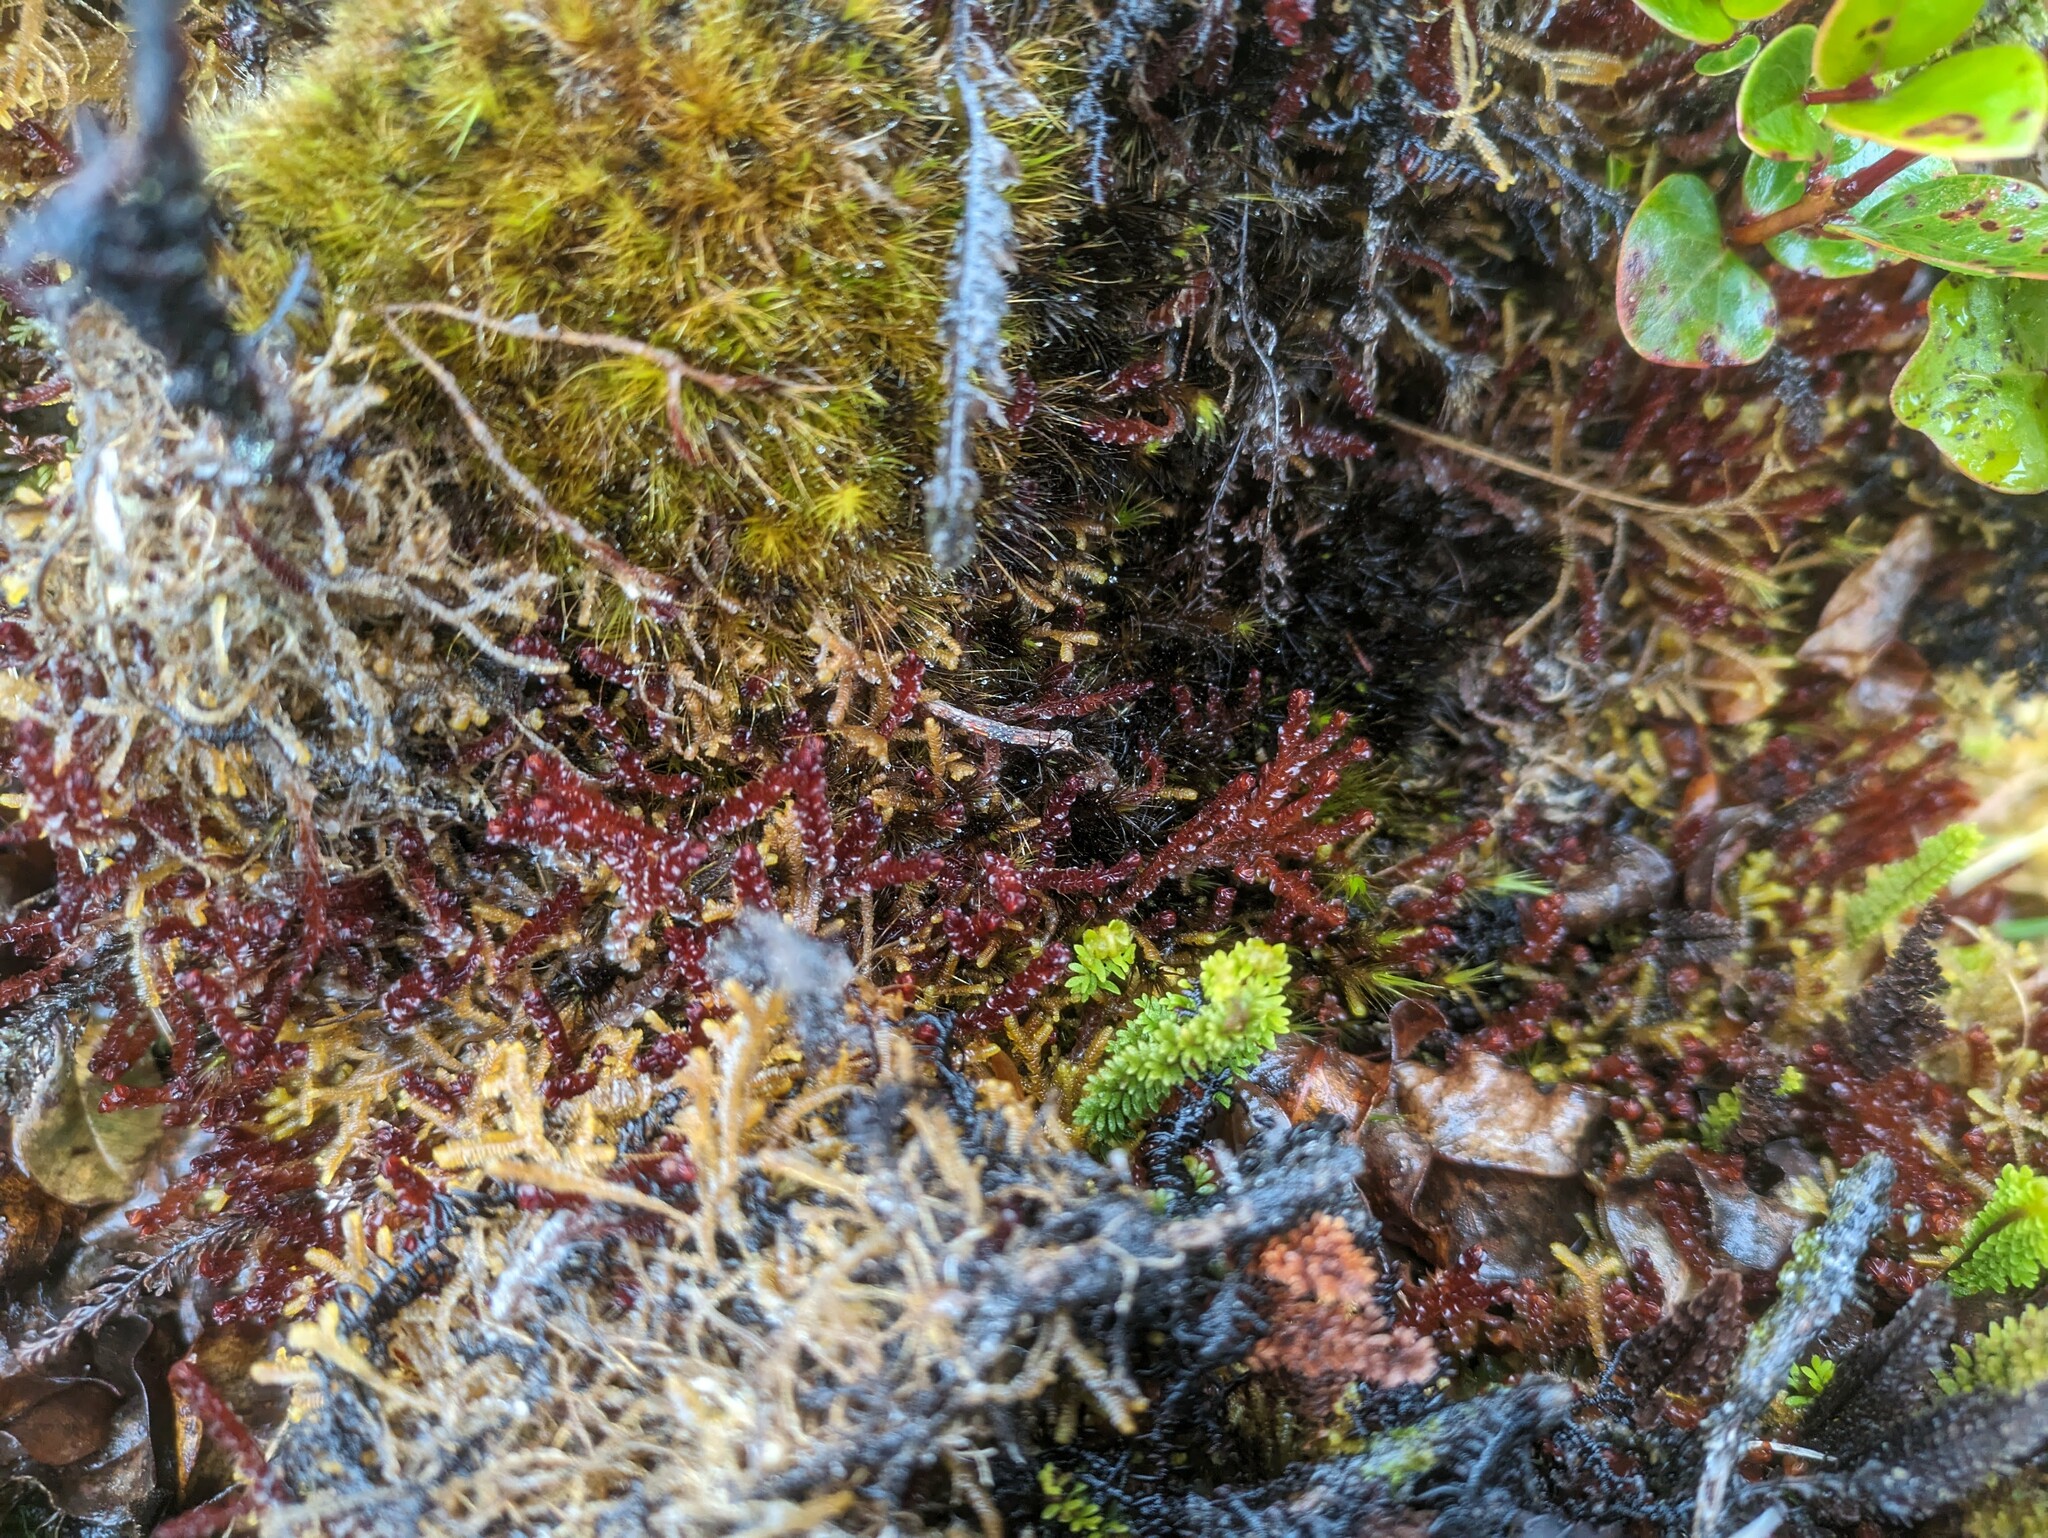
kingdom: Plantae
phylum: Marchantiophyta
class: Jungermanniopsida
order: Jungermanniales
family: Adelanthaceae
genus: Cuspidatula
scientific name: Cuspidatula robusta
